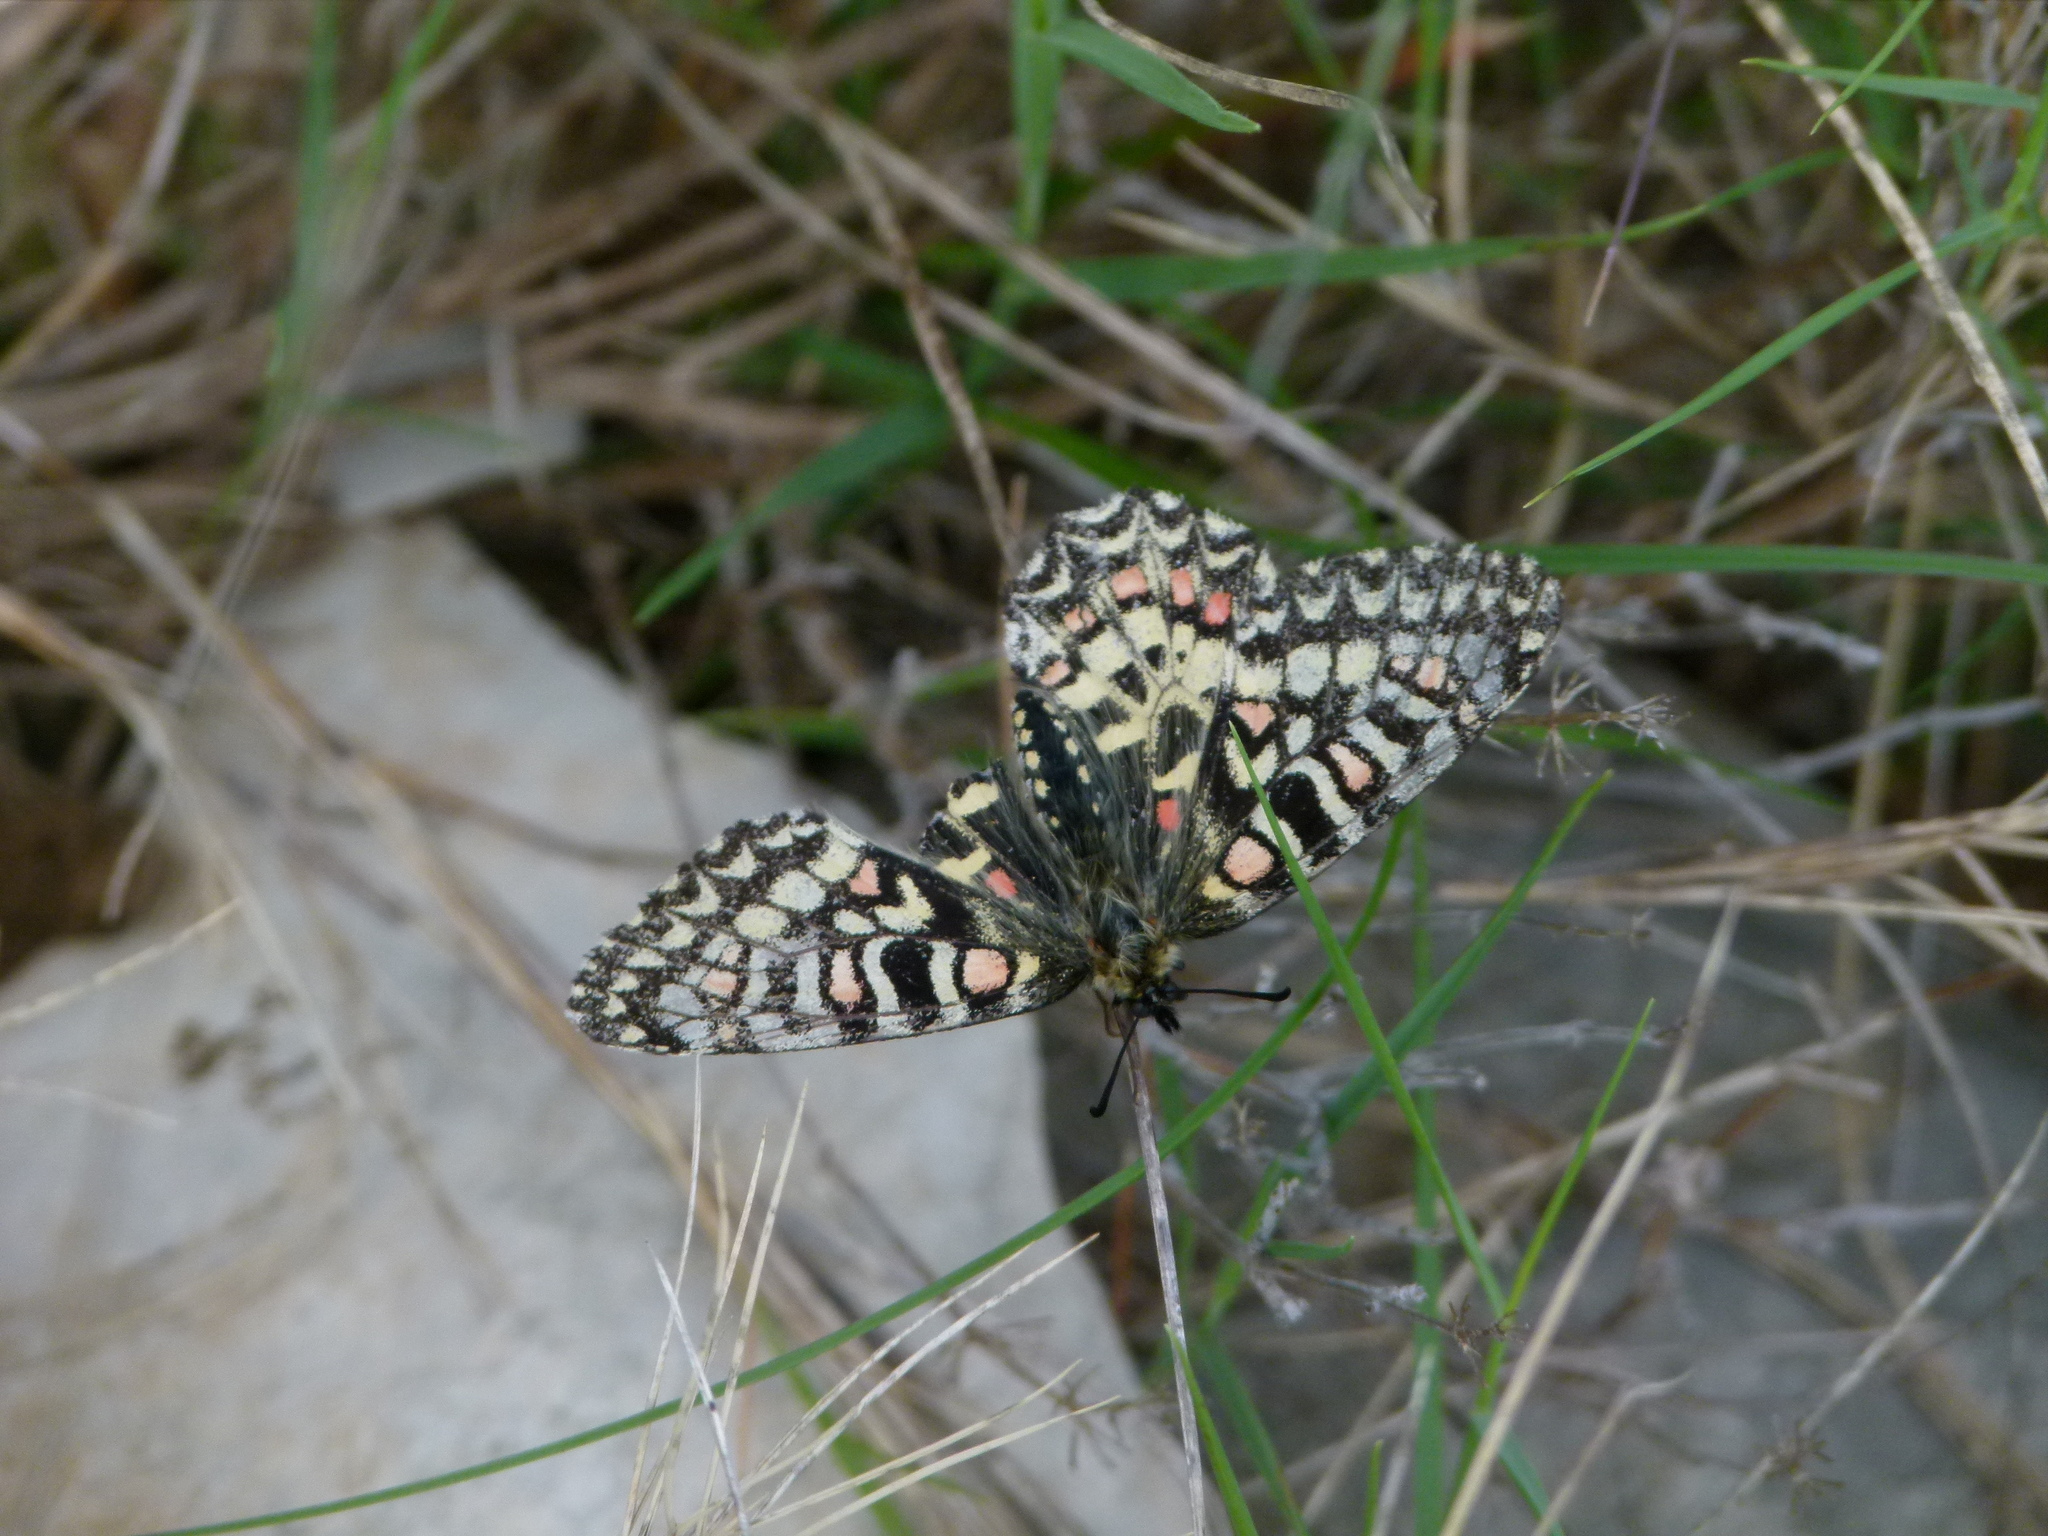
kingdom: Animalia
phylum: Arthropoda
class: Insecta
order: Lepidoptera
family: Papilionidae
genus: Zerynthia
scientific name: Zerynthia rumina
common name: Spanish festoon
